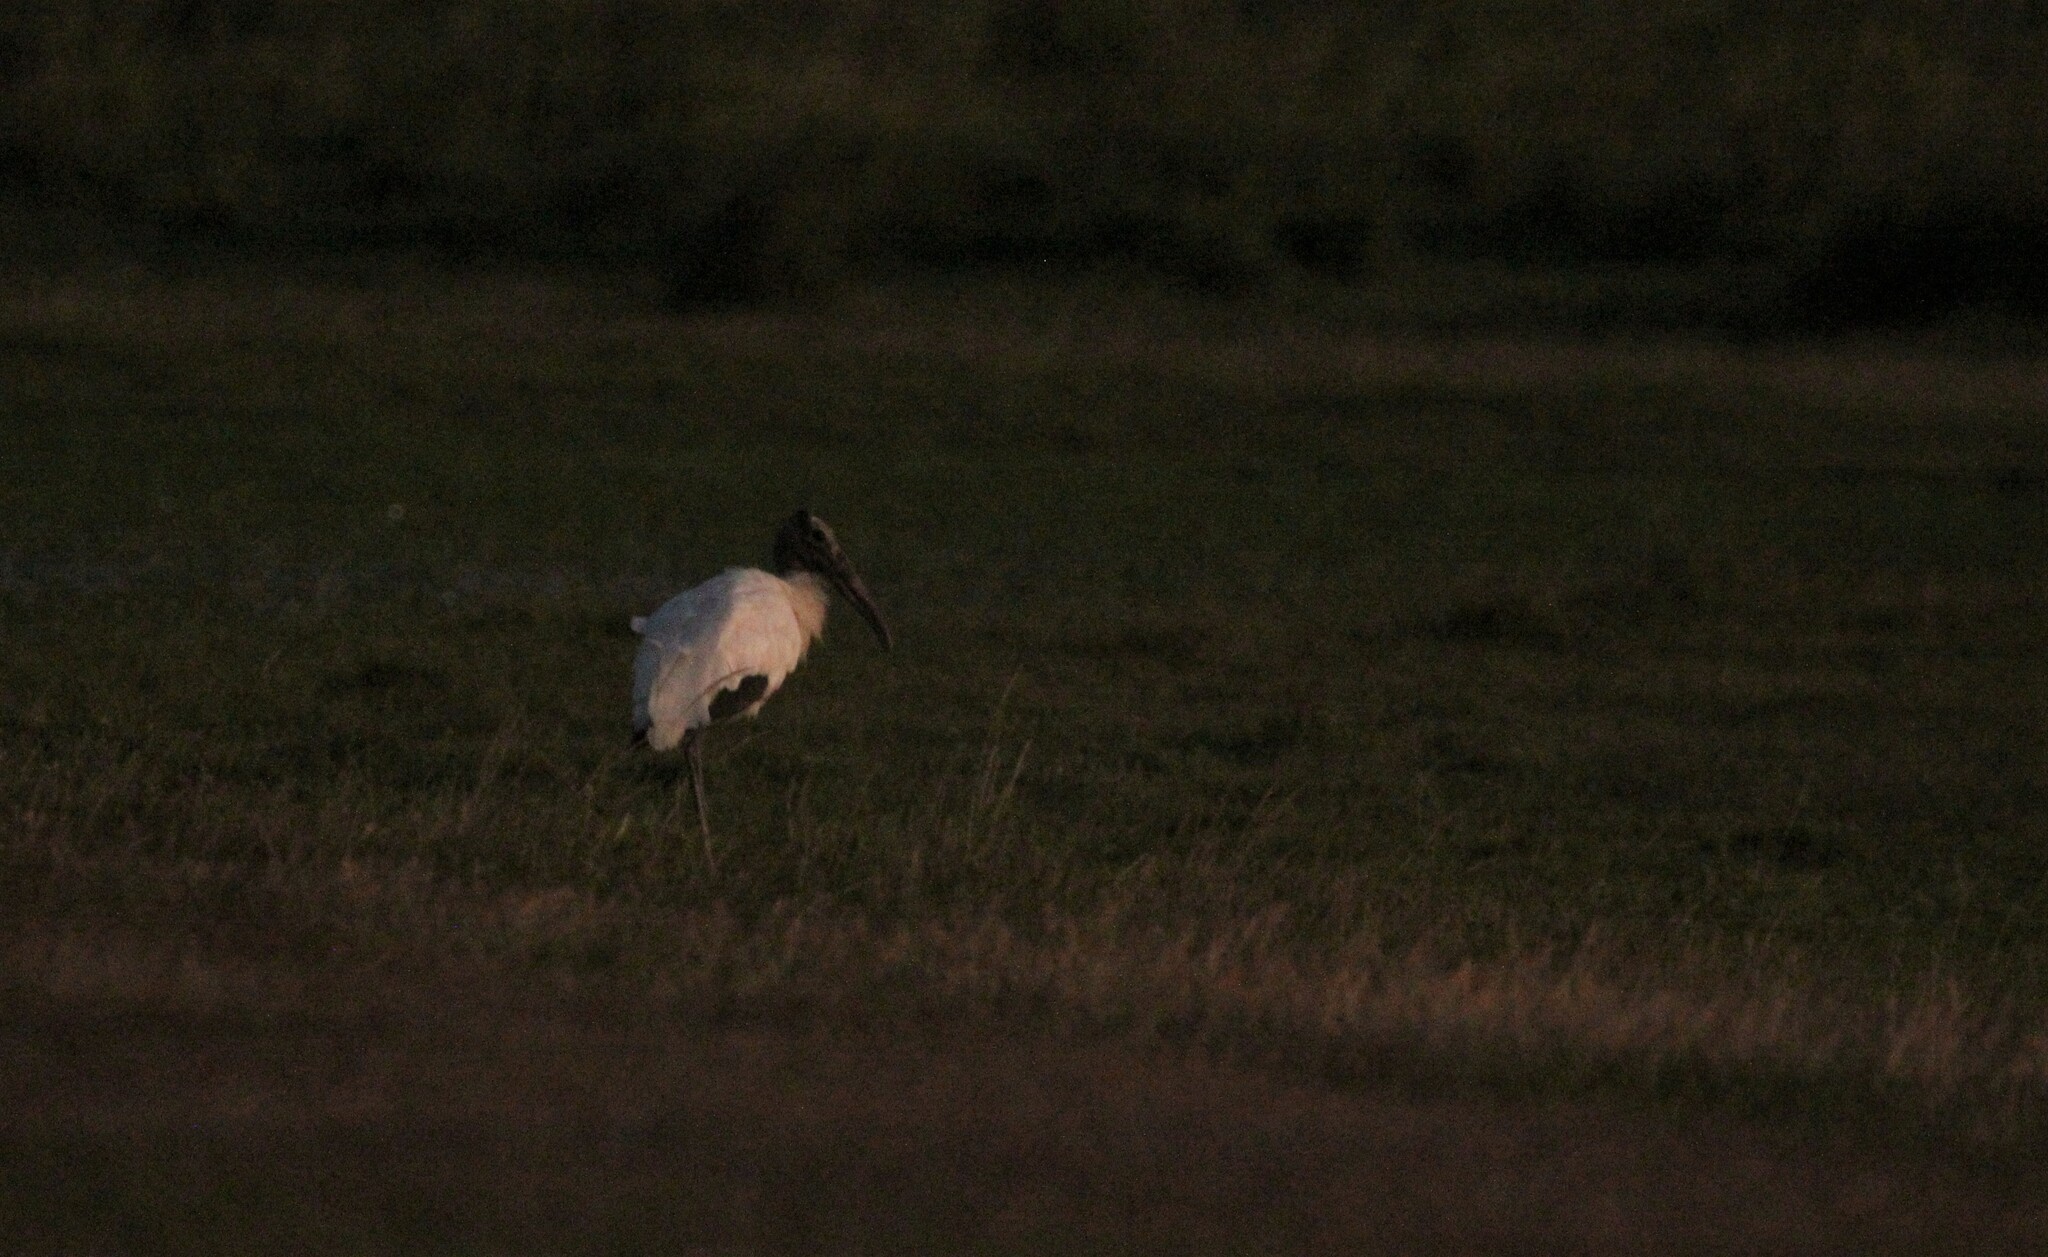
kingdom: Animalia
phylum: Chordata
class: Aves
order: Ciconiiformes
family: Ciconiidae
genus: Mycteria
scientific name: Mycteria americana
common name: Wood stork
